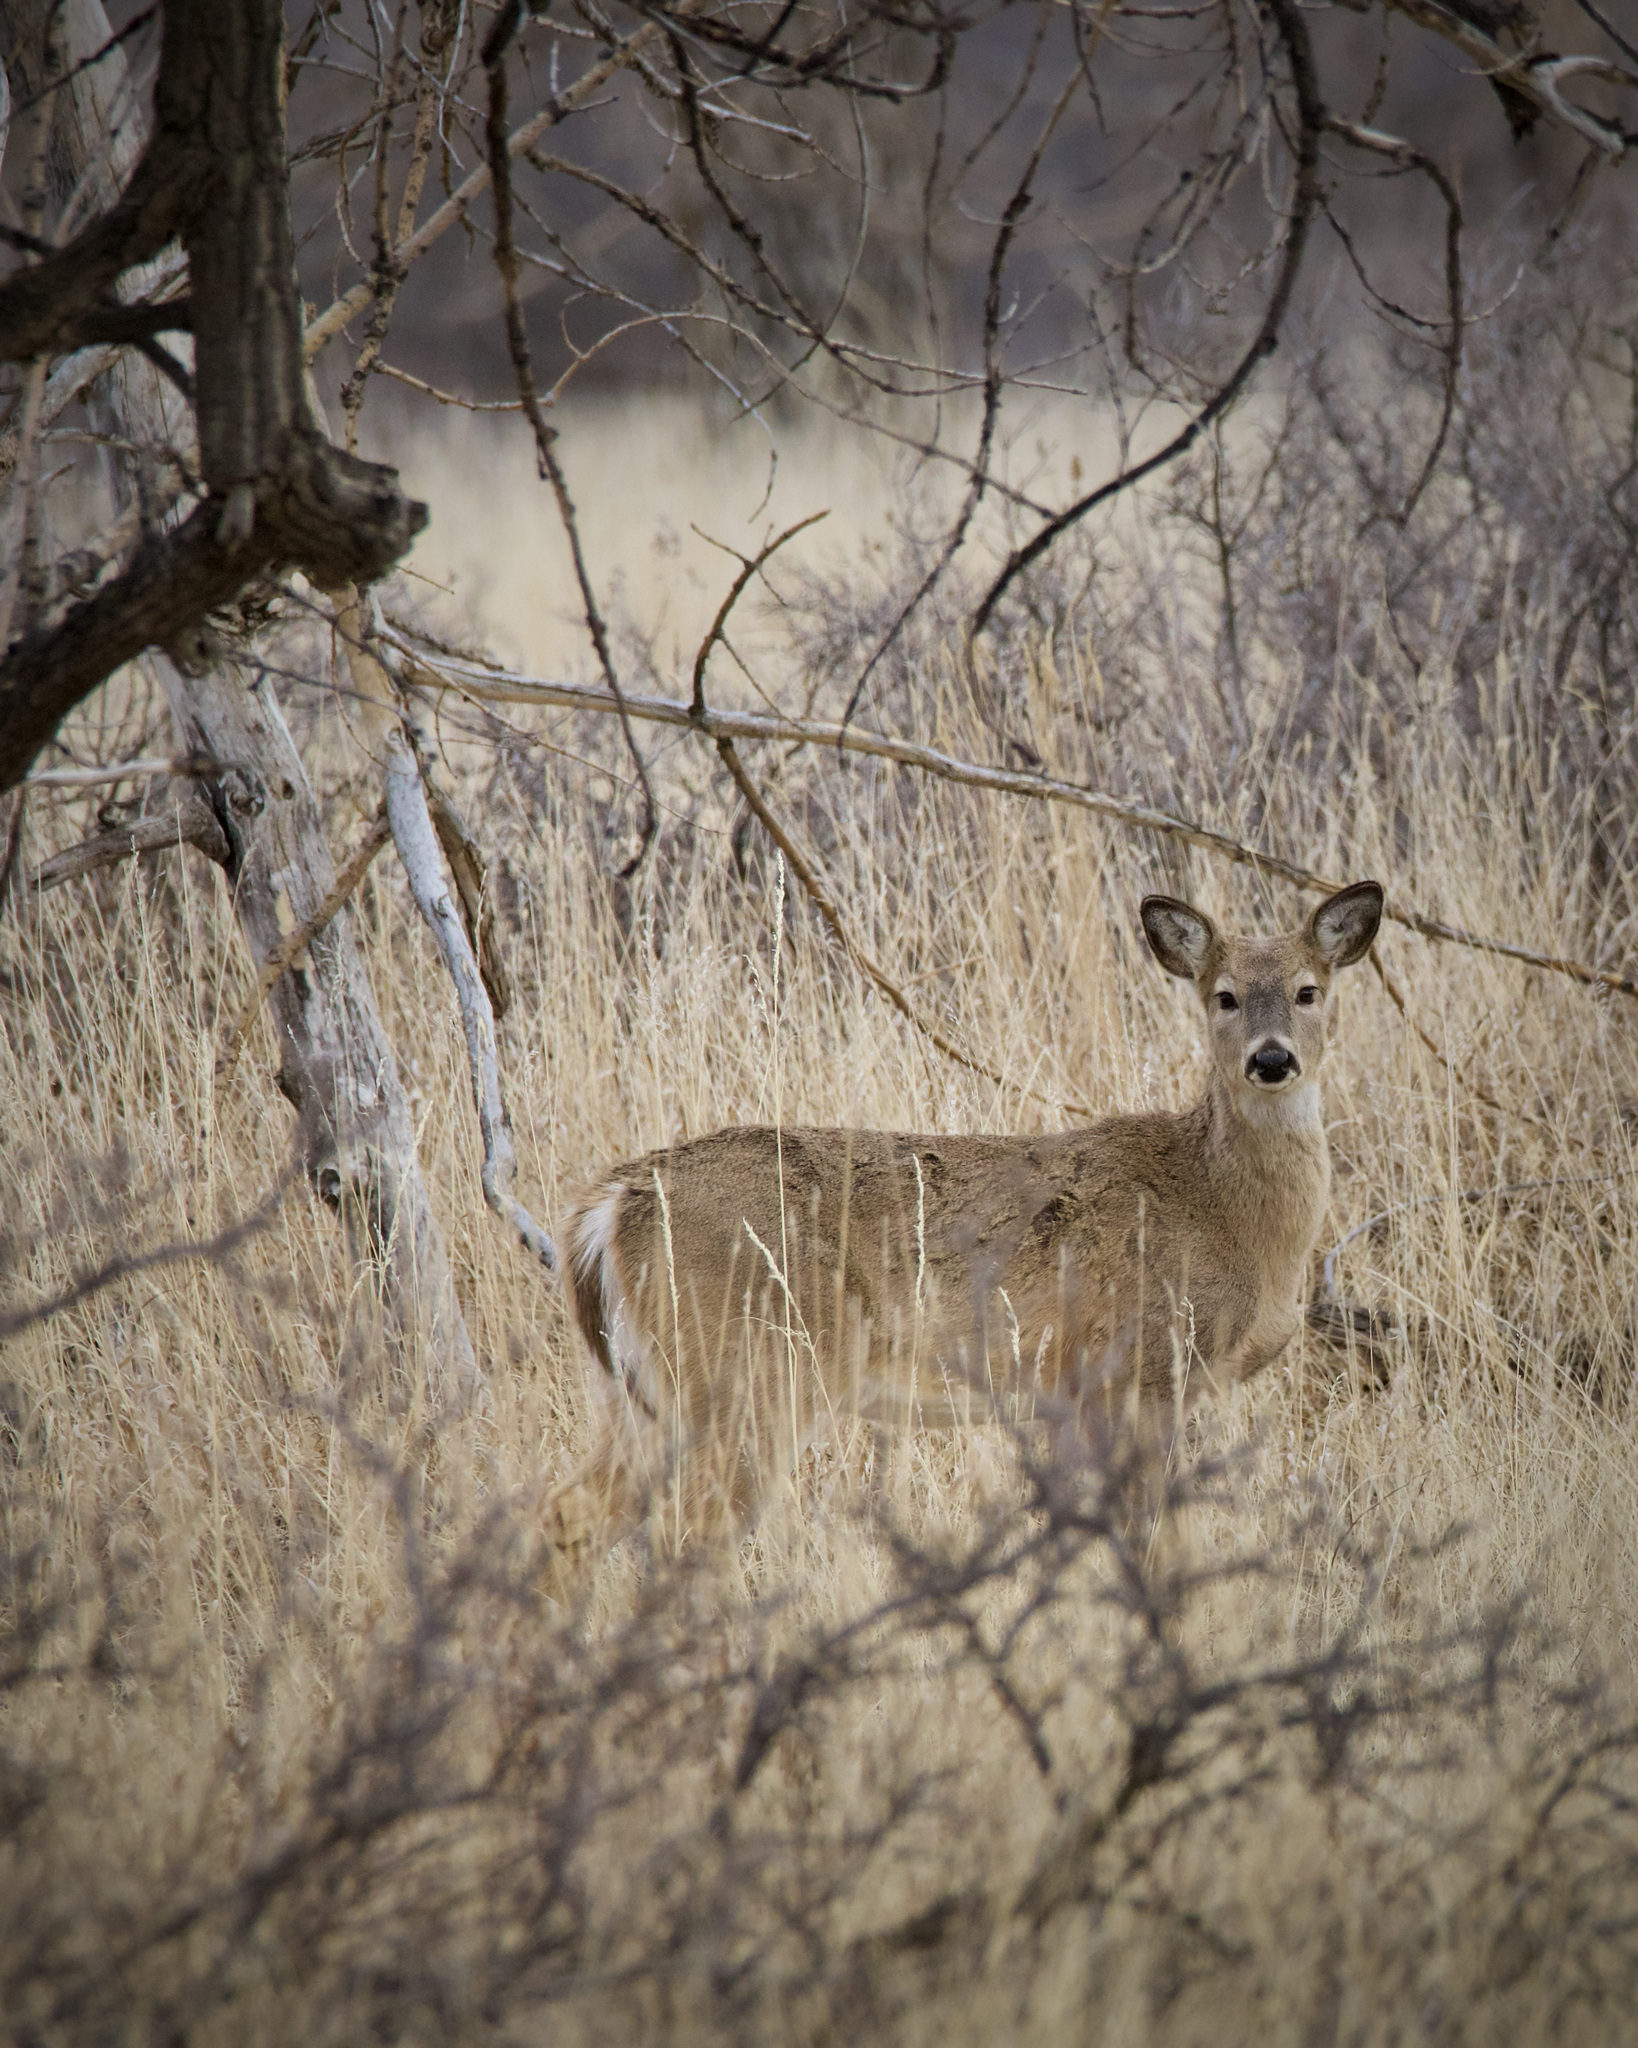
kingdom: Animalia
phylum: Chordata
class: Mammalia
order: Artiodactyla
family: Cervidae
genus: Odocoileus
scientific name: Odocoileus virginianus
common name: White-tailed deer
